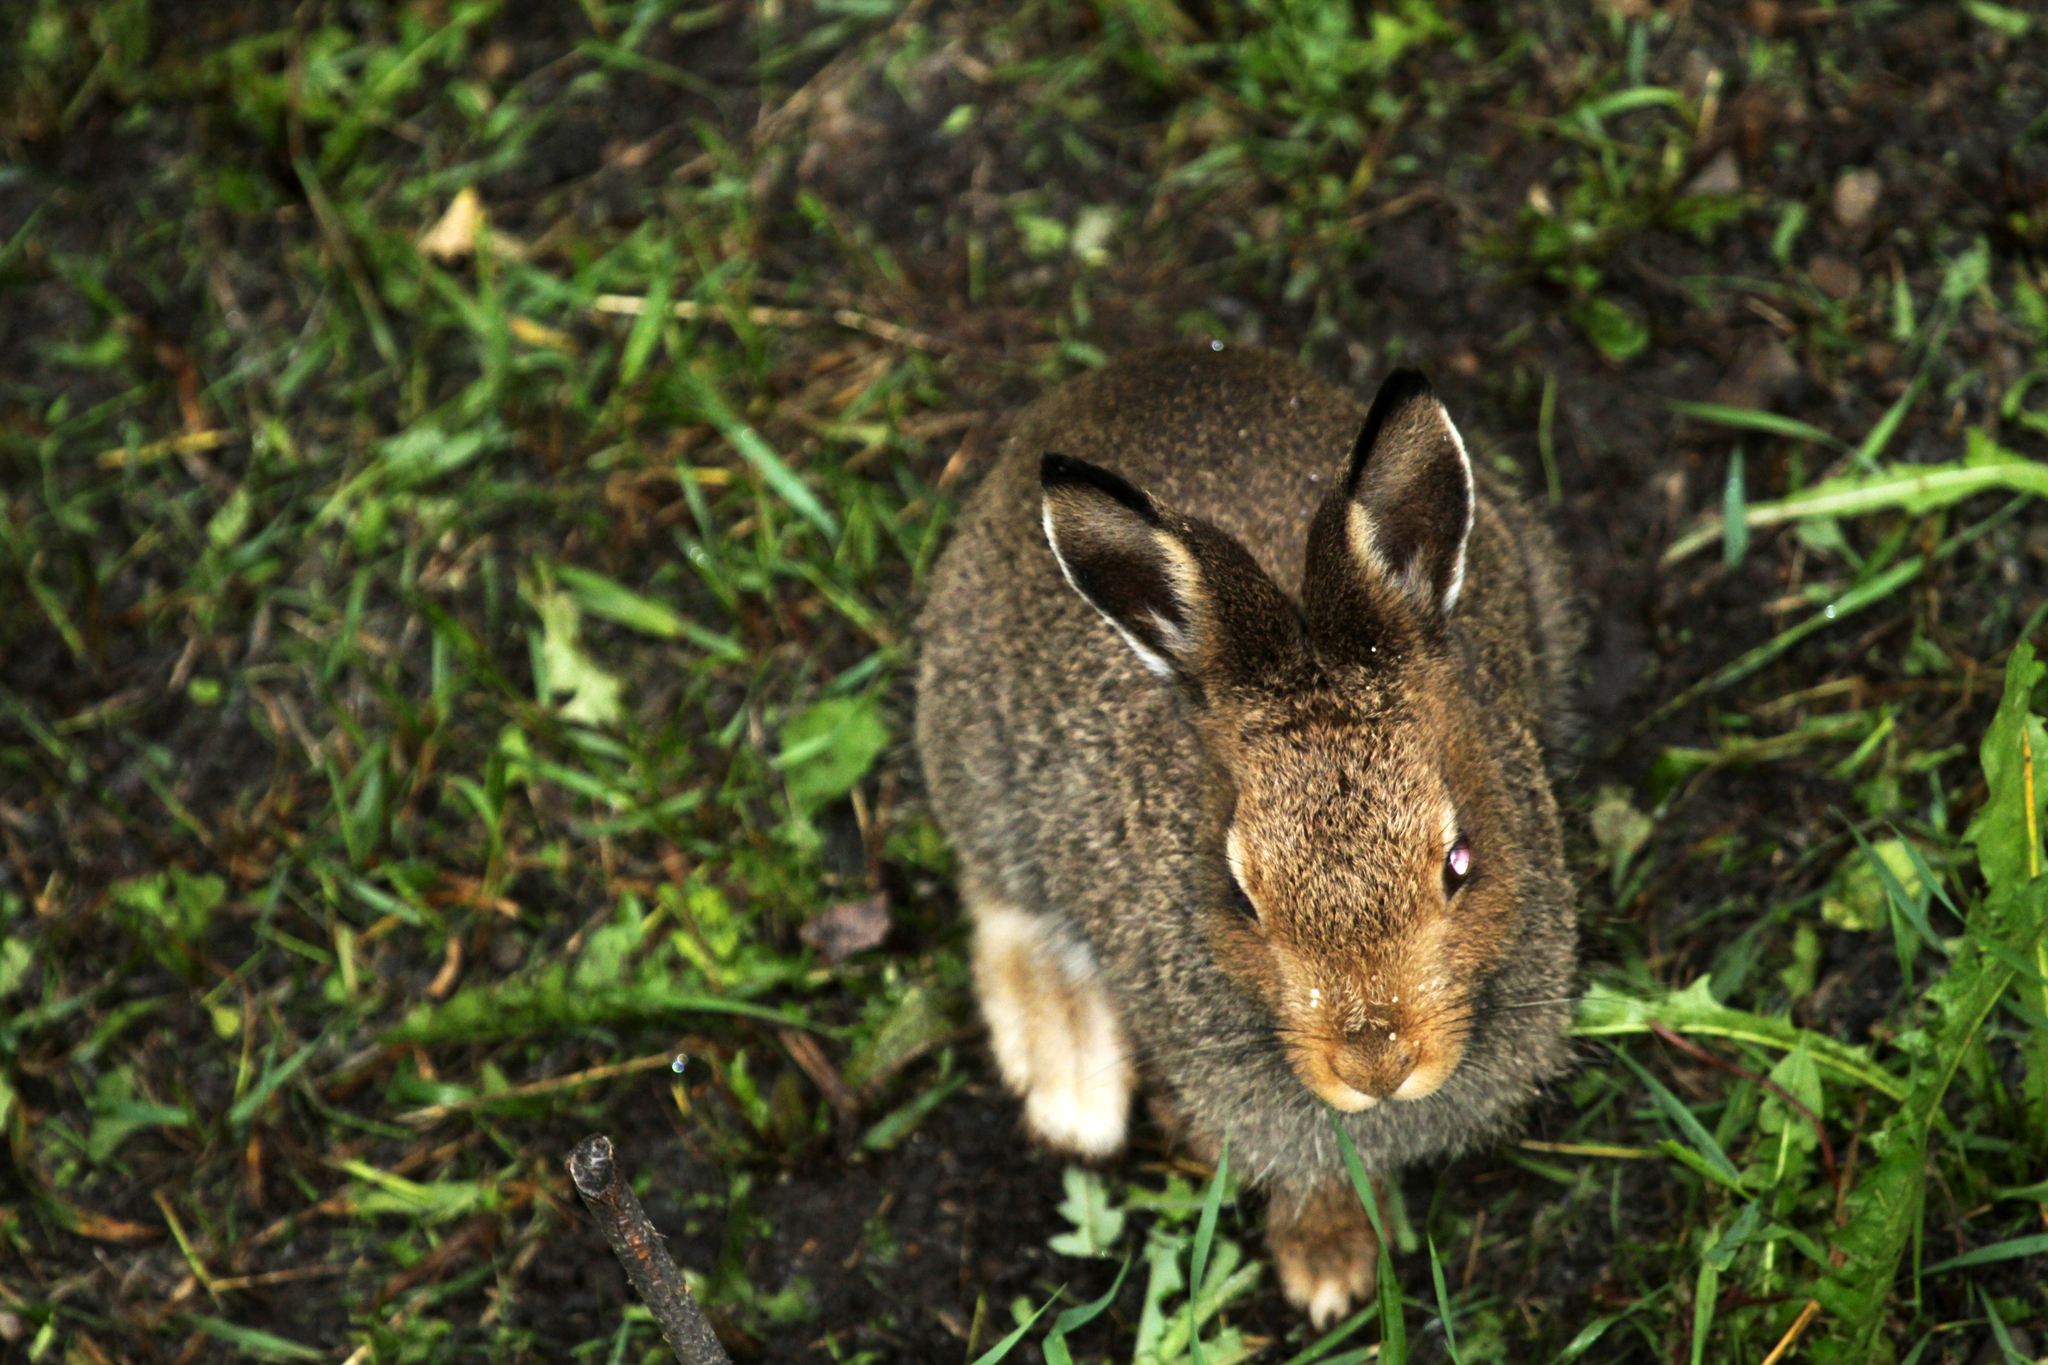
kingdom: Animalia
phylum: Chordata
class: Mammalia
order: Lagomorpha
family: Leporidae
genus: Lepus
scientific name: Lepus timidus
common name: Mountain hare
